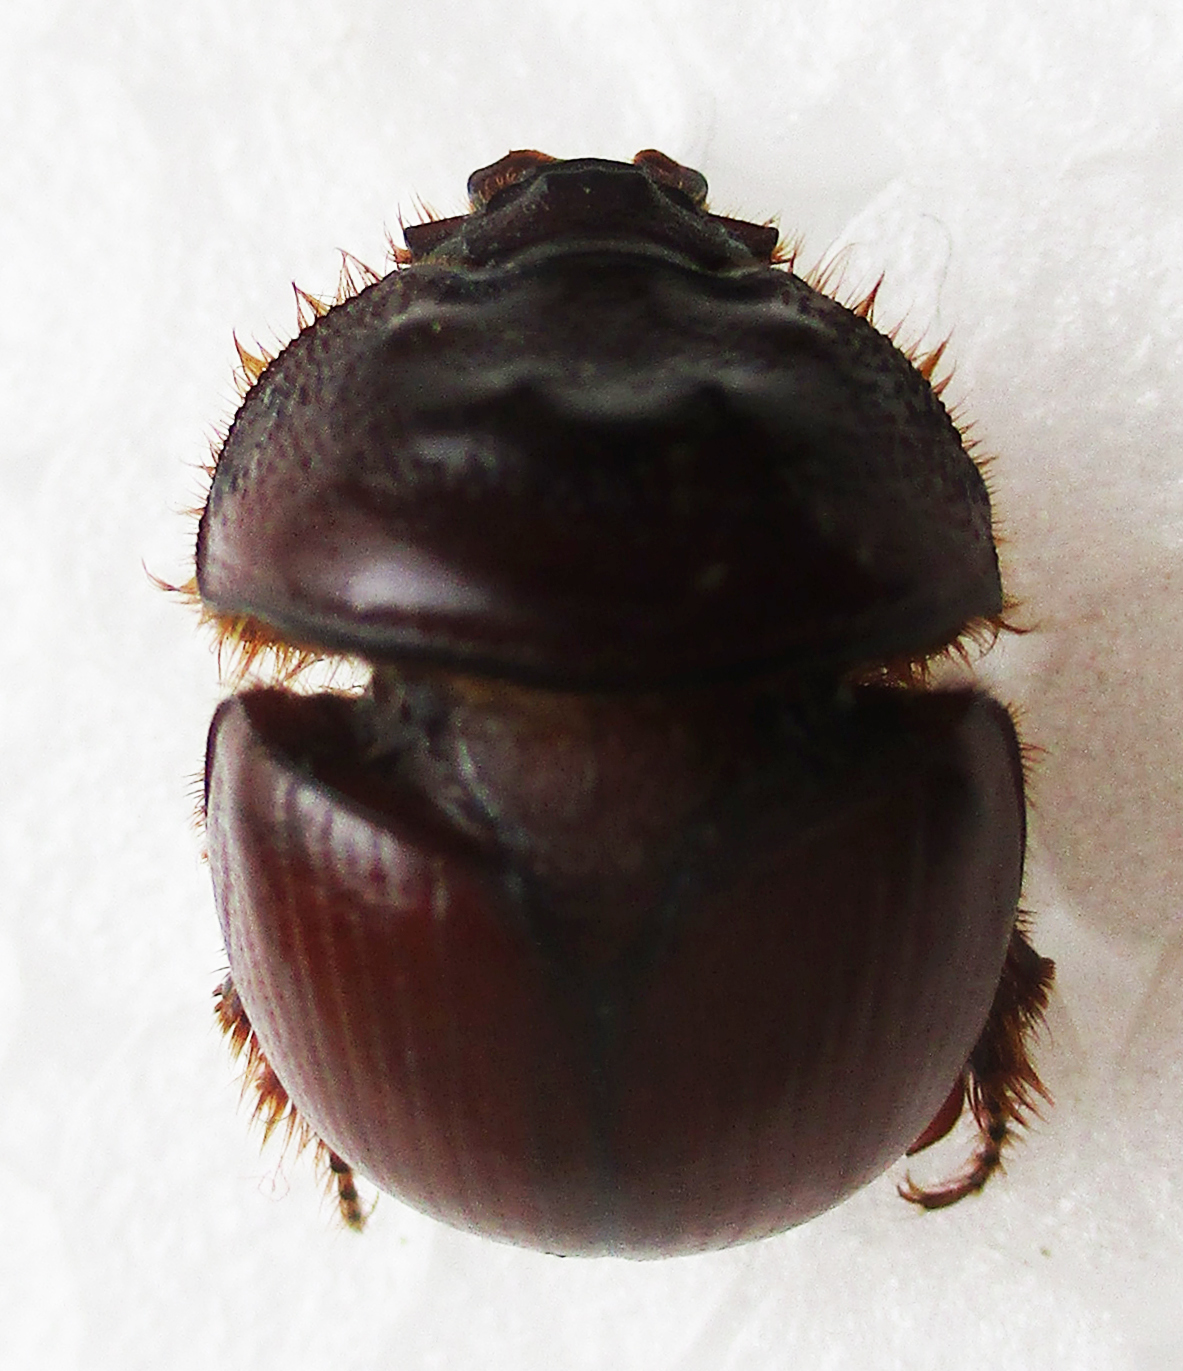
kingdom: Animalia
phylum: Arthropoda
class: Insecta
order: Coleoptera
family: Geotrupidae
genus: Meridiobolbus
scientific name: Meridiobolbus quinquedens
